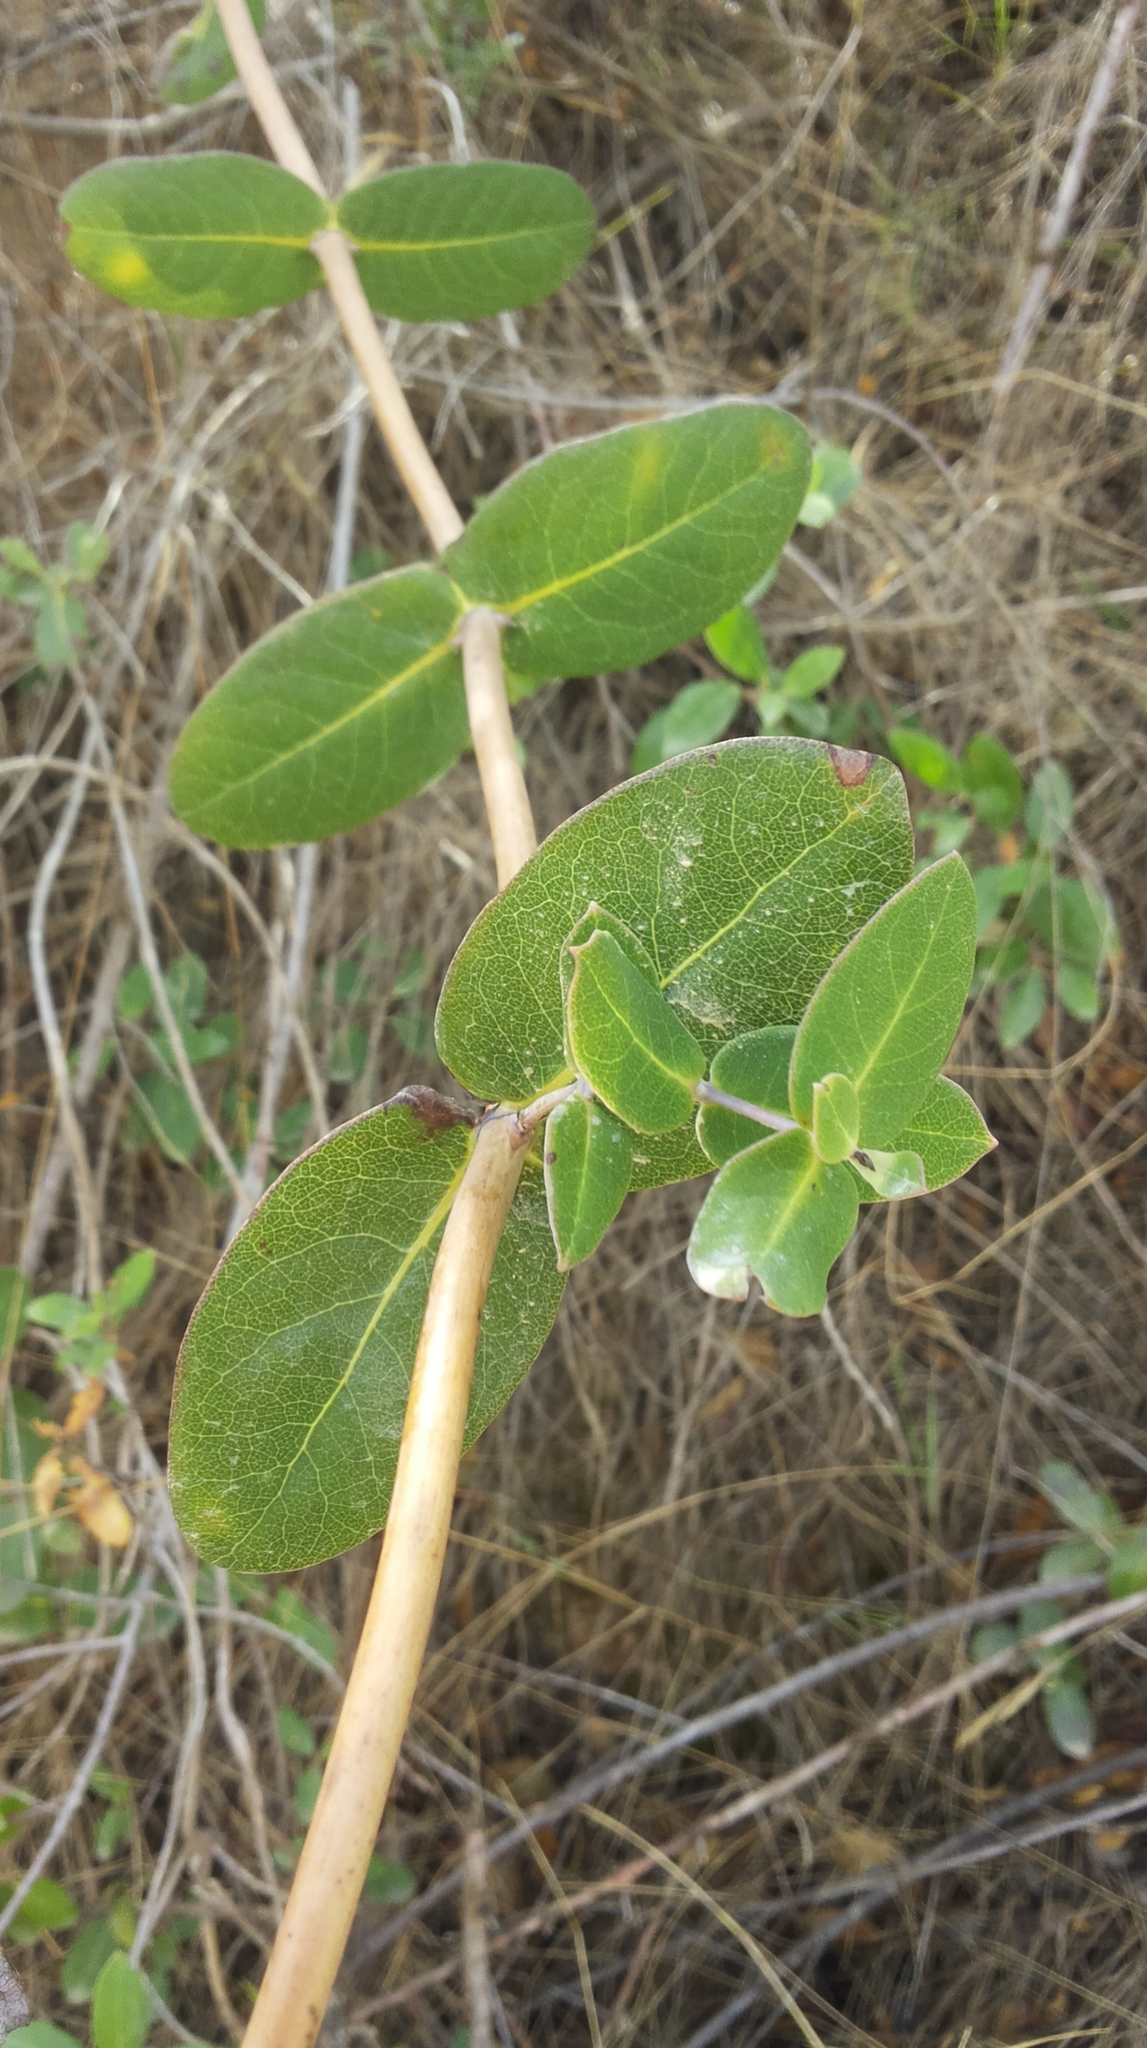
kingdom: Plantae
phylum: Tracheophyta
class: Magnoliopsida
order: Dipsacales
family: Caprifoliaceae
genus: Lonicera
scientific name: Lonicera implexa
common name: Minorca honeysuckle
